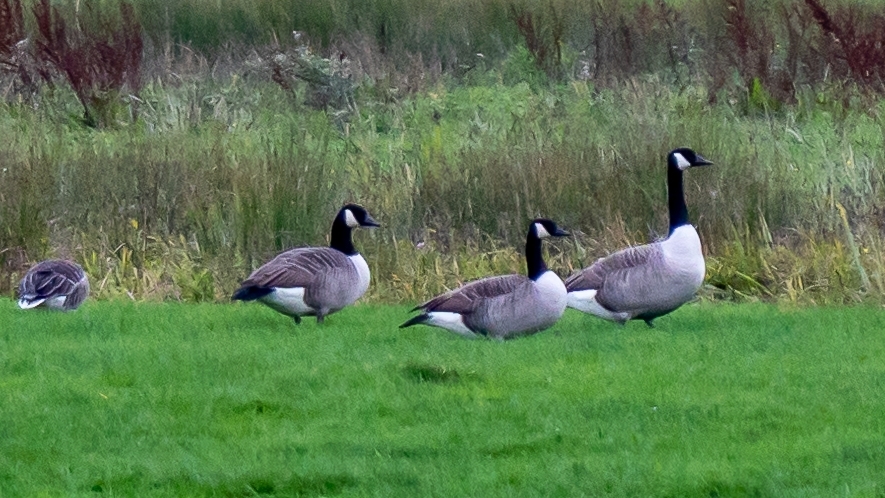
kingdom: Animalia
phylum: Chordata
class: Aves
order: Anseriformes
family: Anatidae
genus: Branta
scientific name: Branta canadensis
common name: Canada goose
